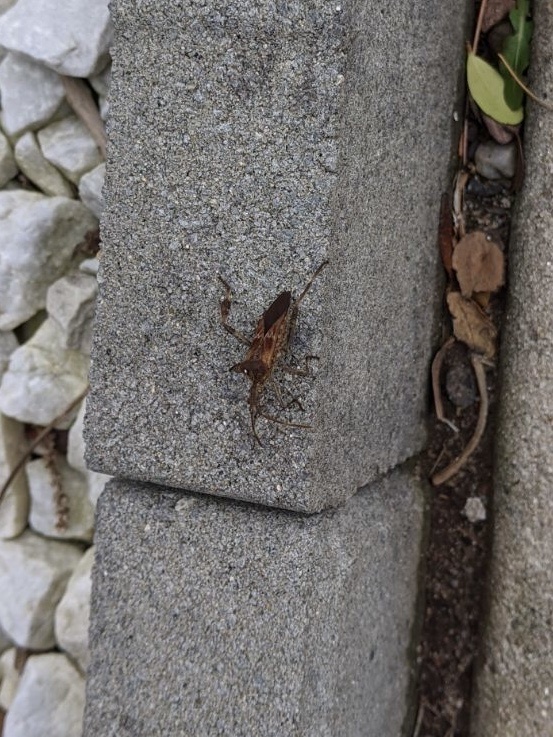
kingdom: Animalia
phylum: Arthropoda
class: Insecta
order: Hemiptera
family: Coreidae
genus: Leptoglossus
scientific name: Leptoglossus occidentalis
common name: Western conifer-seed bug
